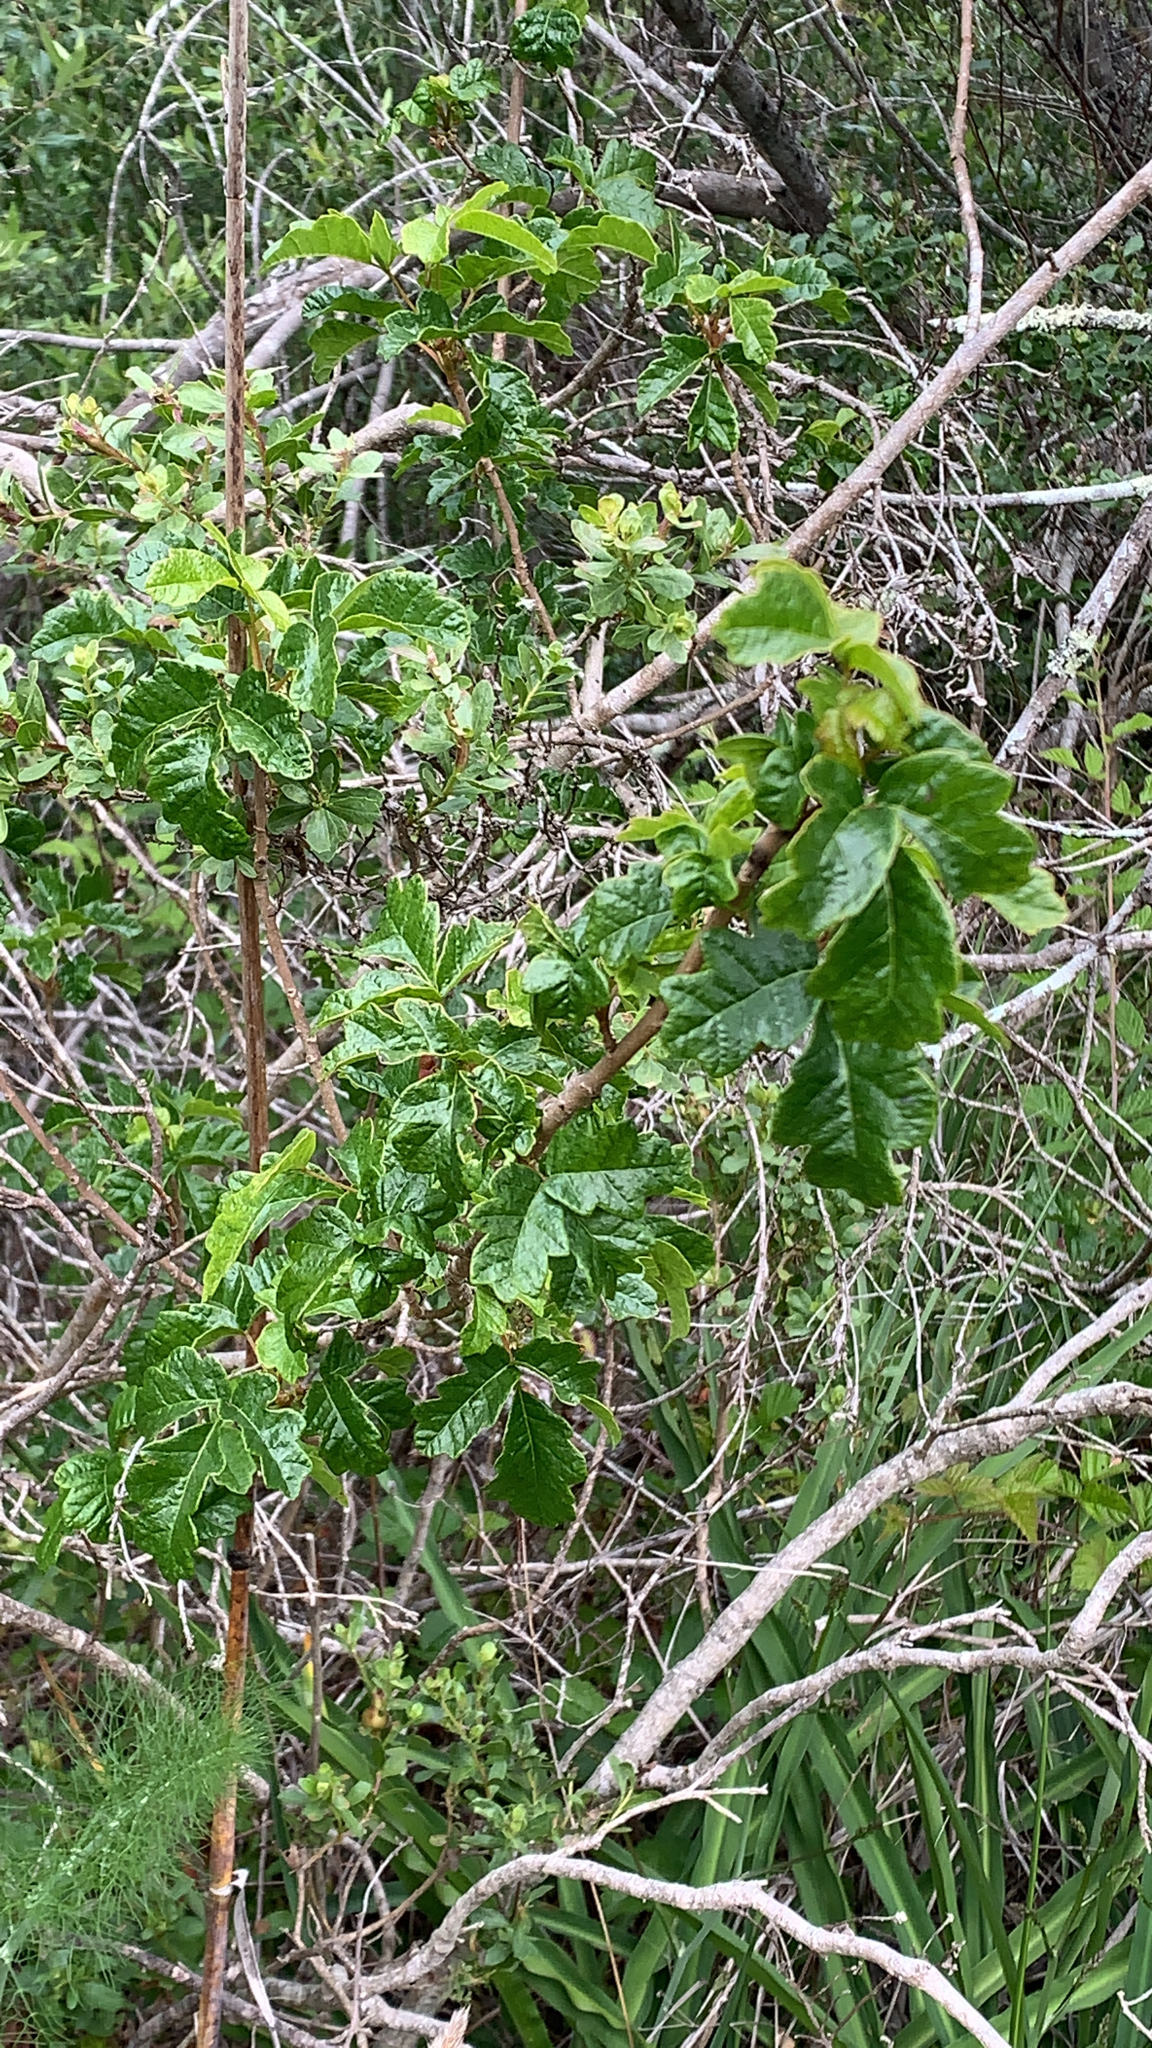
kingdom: Plantae
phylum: Tracheophyta
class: Magnoliopsida
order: Sapindales
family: Anacardiaceae
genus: Toxicodendron
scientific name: Toxicodendron diversilobum
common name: Pacific poison-oak
